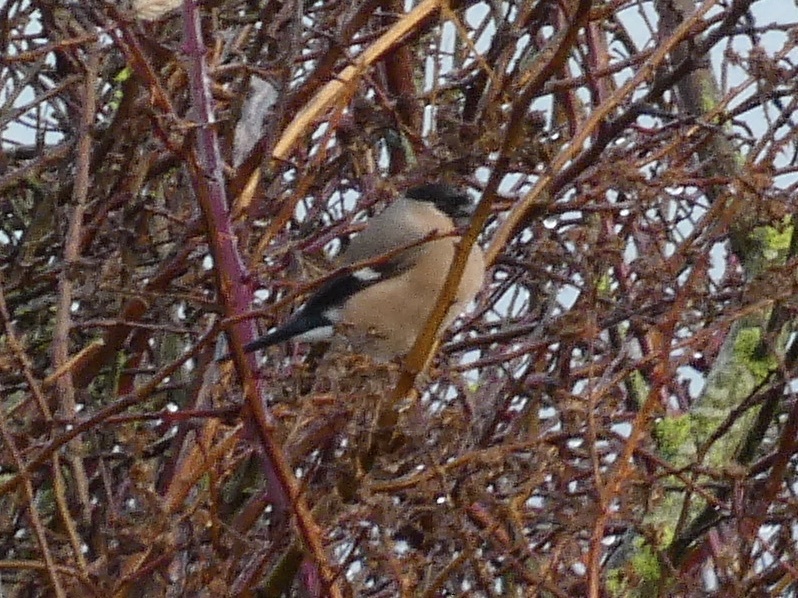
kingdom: Animalia
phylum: Chordata
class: Aves
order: Passeriformes
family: Fringillidae
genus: Pyrrhula
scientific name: Pyrrhula pyrrhula
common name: Eurasian bullfinch
